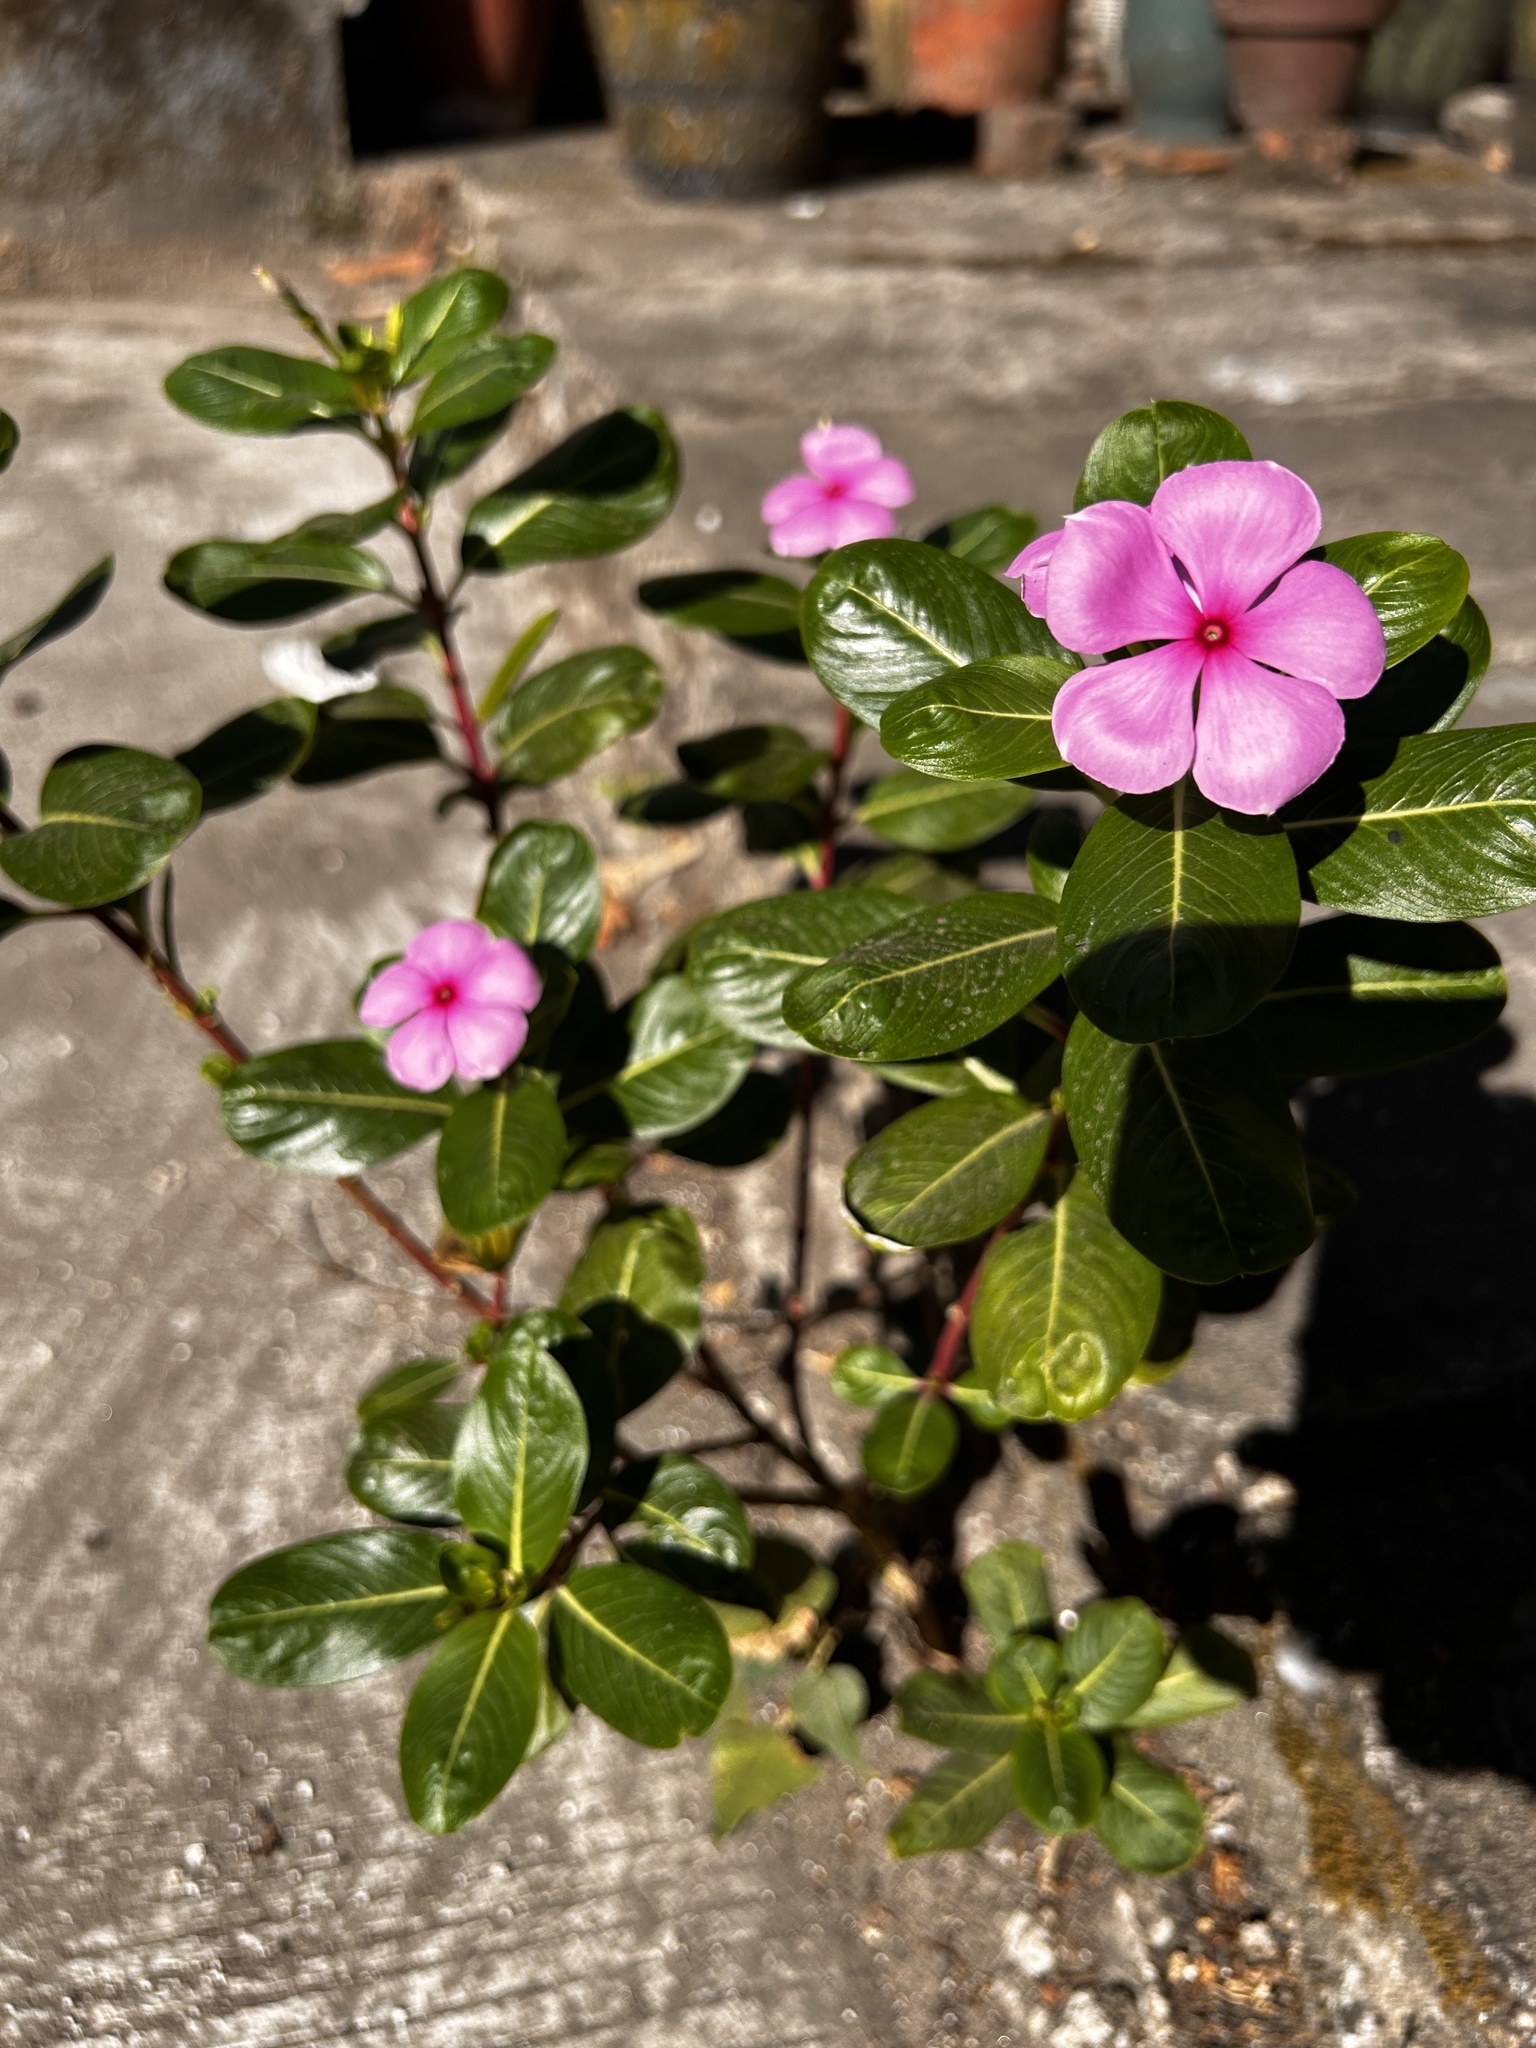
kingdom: Plantae
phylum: Tracheophyta
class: Magnoliopsida
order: Gentianales
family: Apocynaceae
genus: Catharanthus
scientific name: Catharanthus roseus
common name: Madagascar periwinkle
